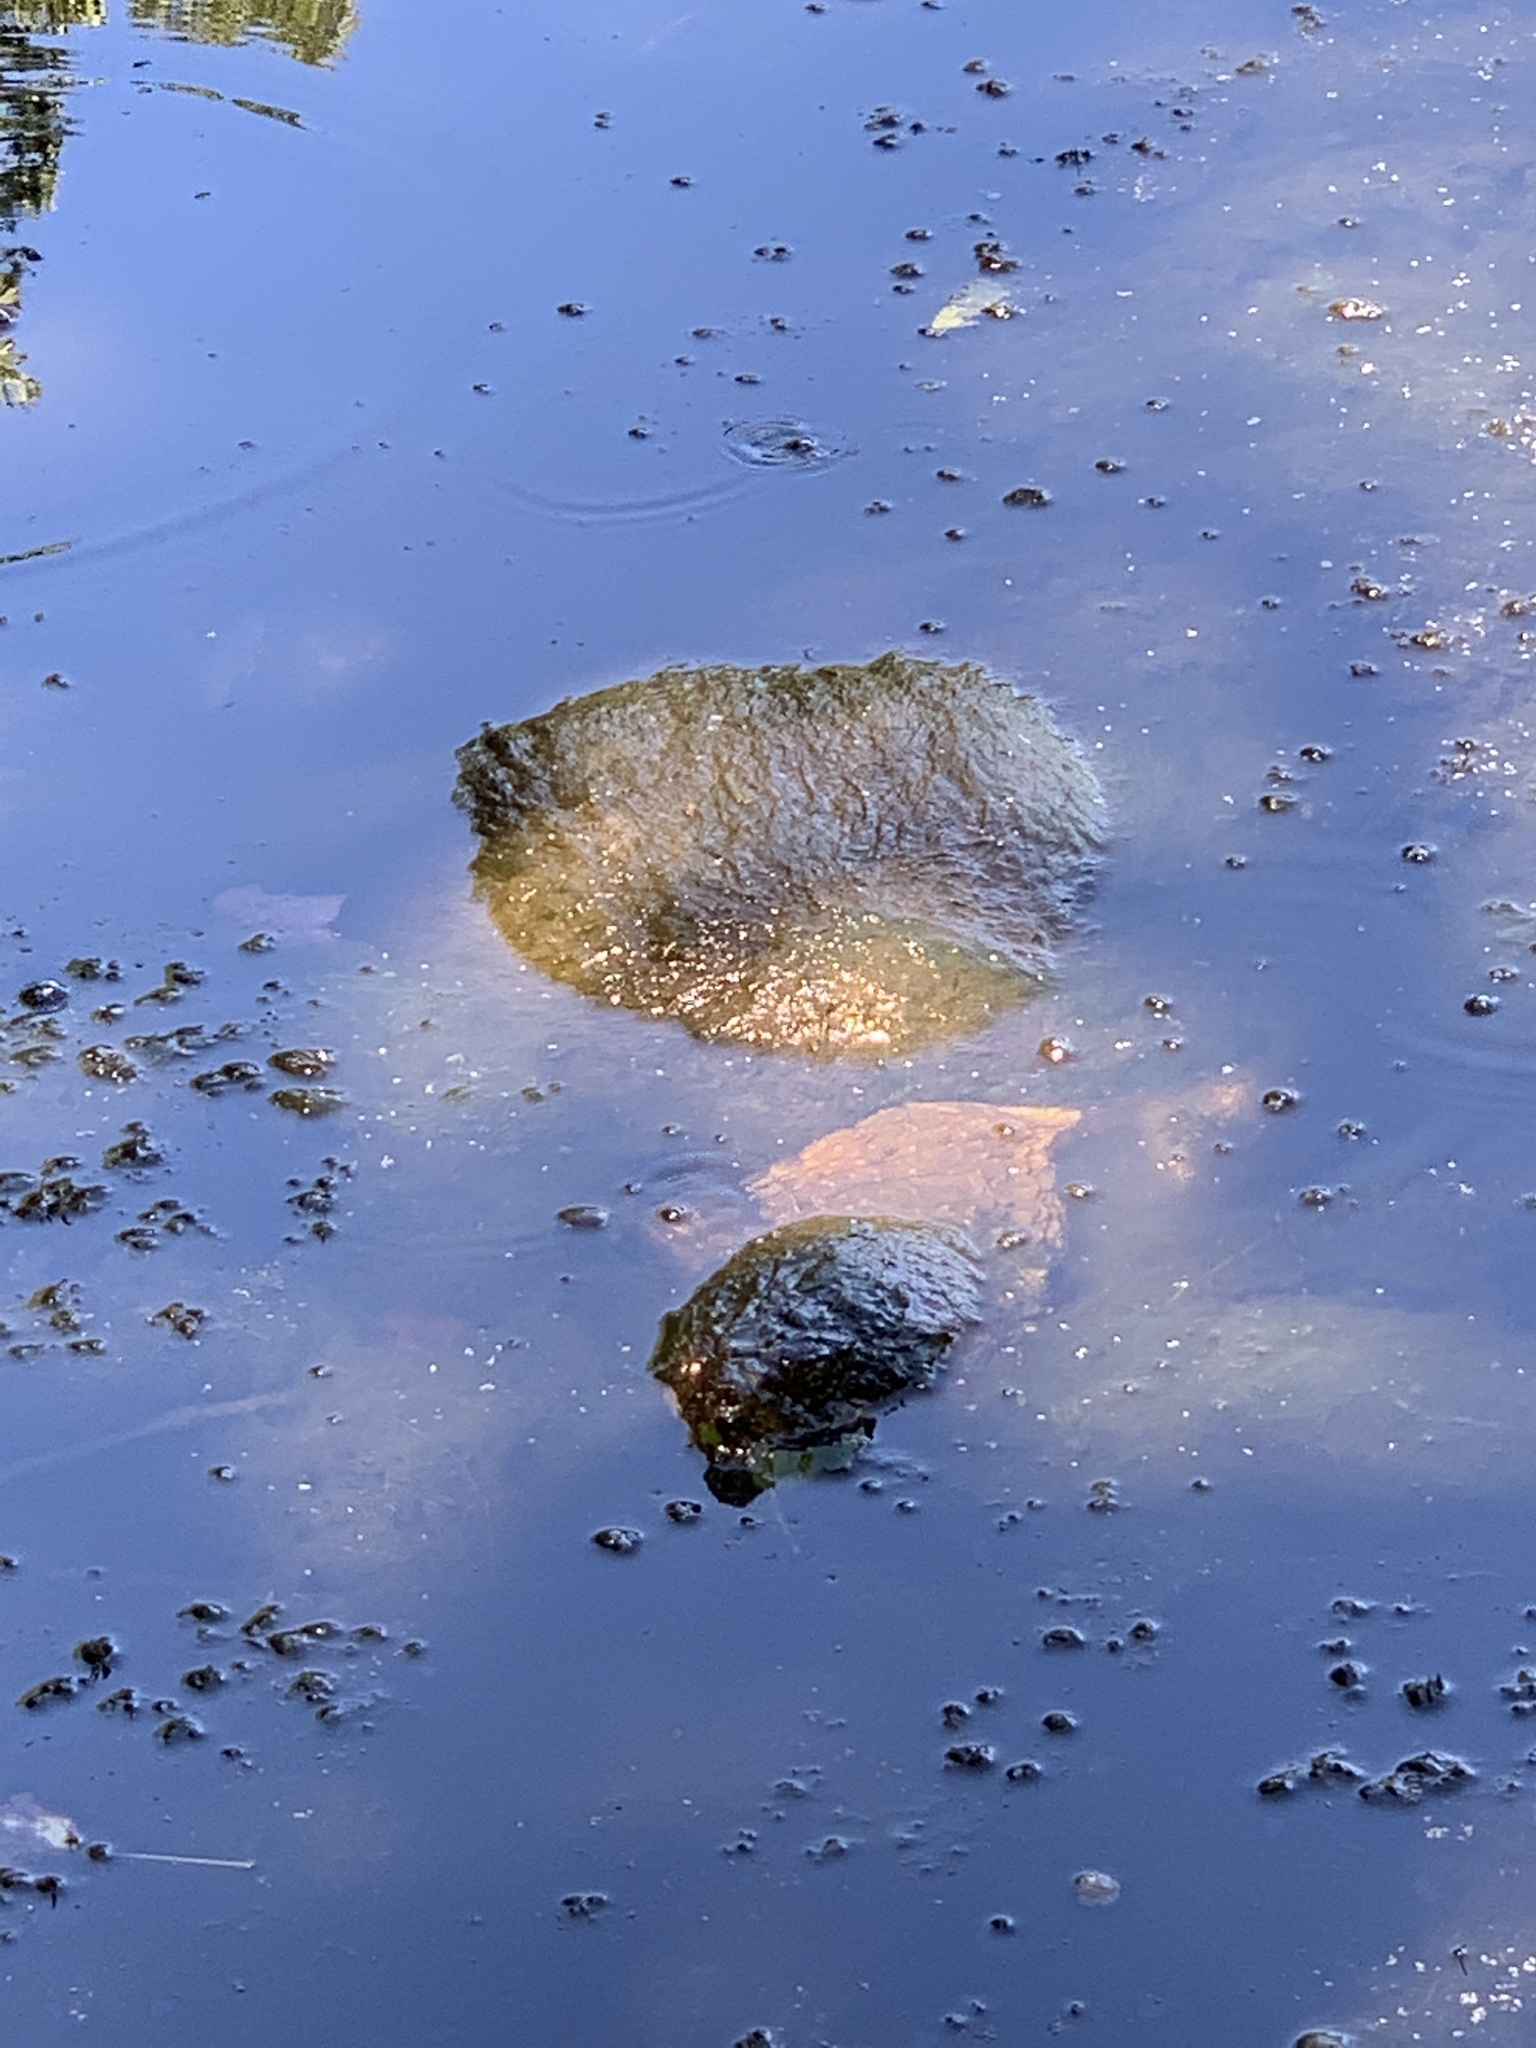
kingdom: Animalia
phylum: Chordata
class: Testudines
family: Chelydridae
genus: Chelydra
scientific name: Chelydra serpentina
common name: Common snapping turtle
